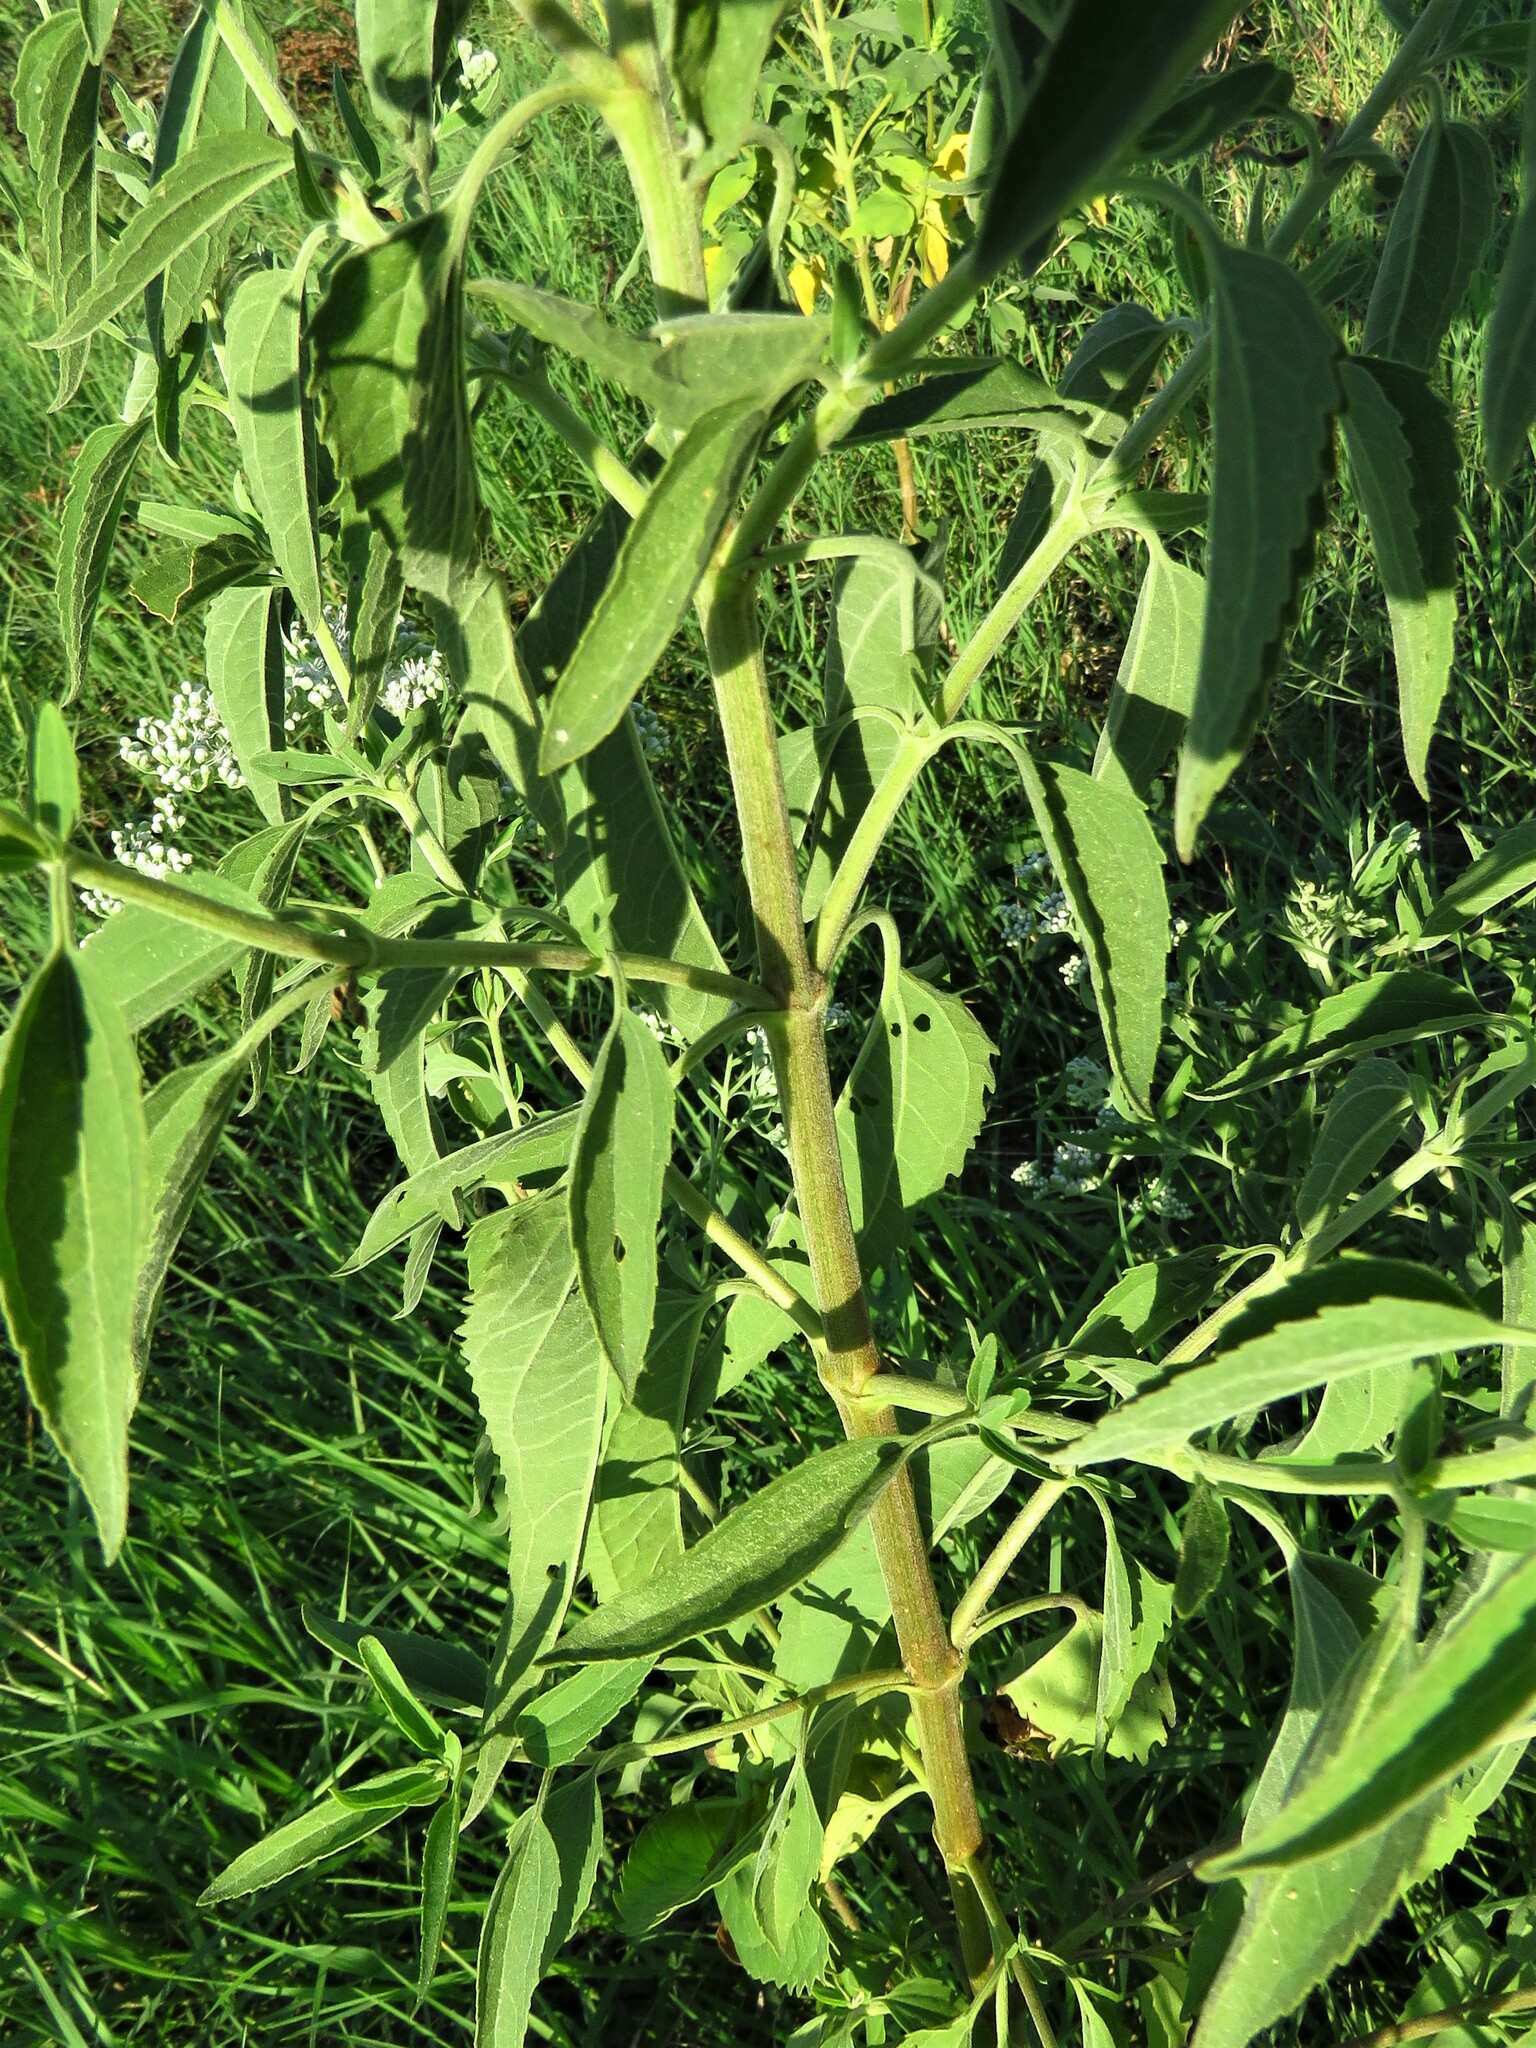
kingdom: Plantae
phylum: Tracheophyta
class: Magnoliopsida
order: Asterales
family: Asteraceae
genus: Eupatorium
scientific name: Eupatorium serotinum
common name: Late boneset
